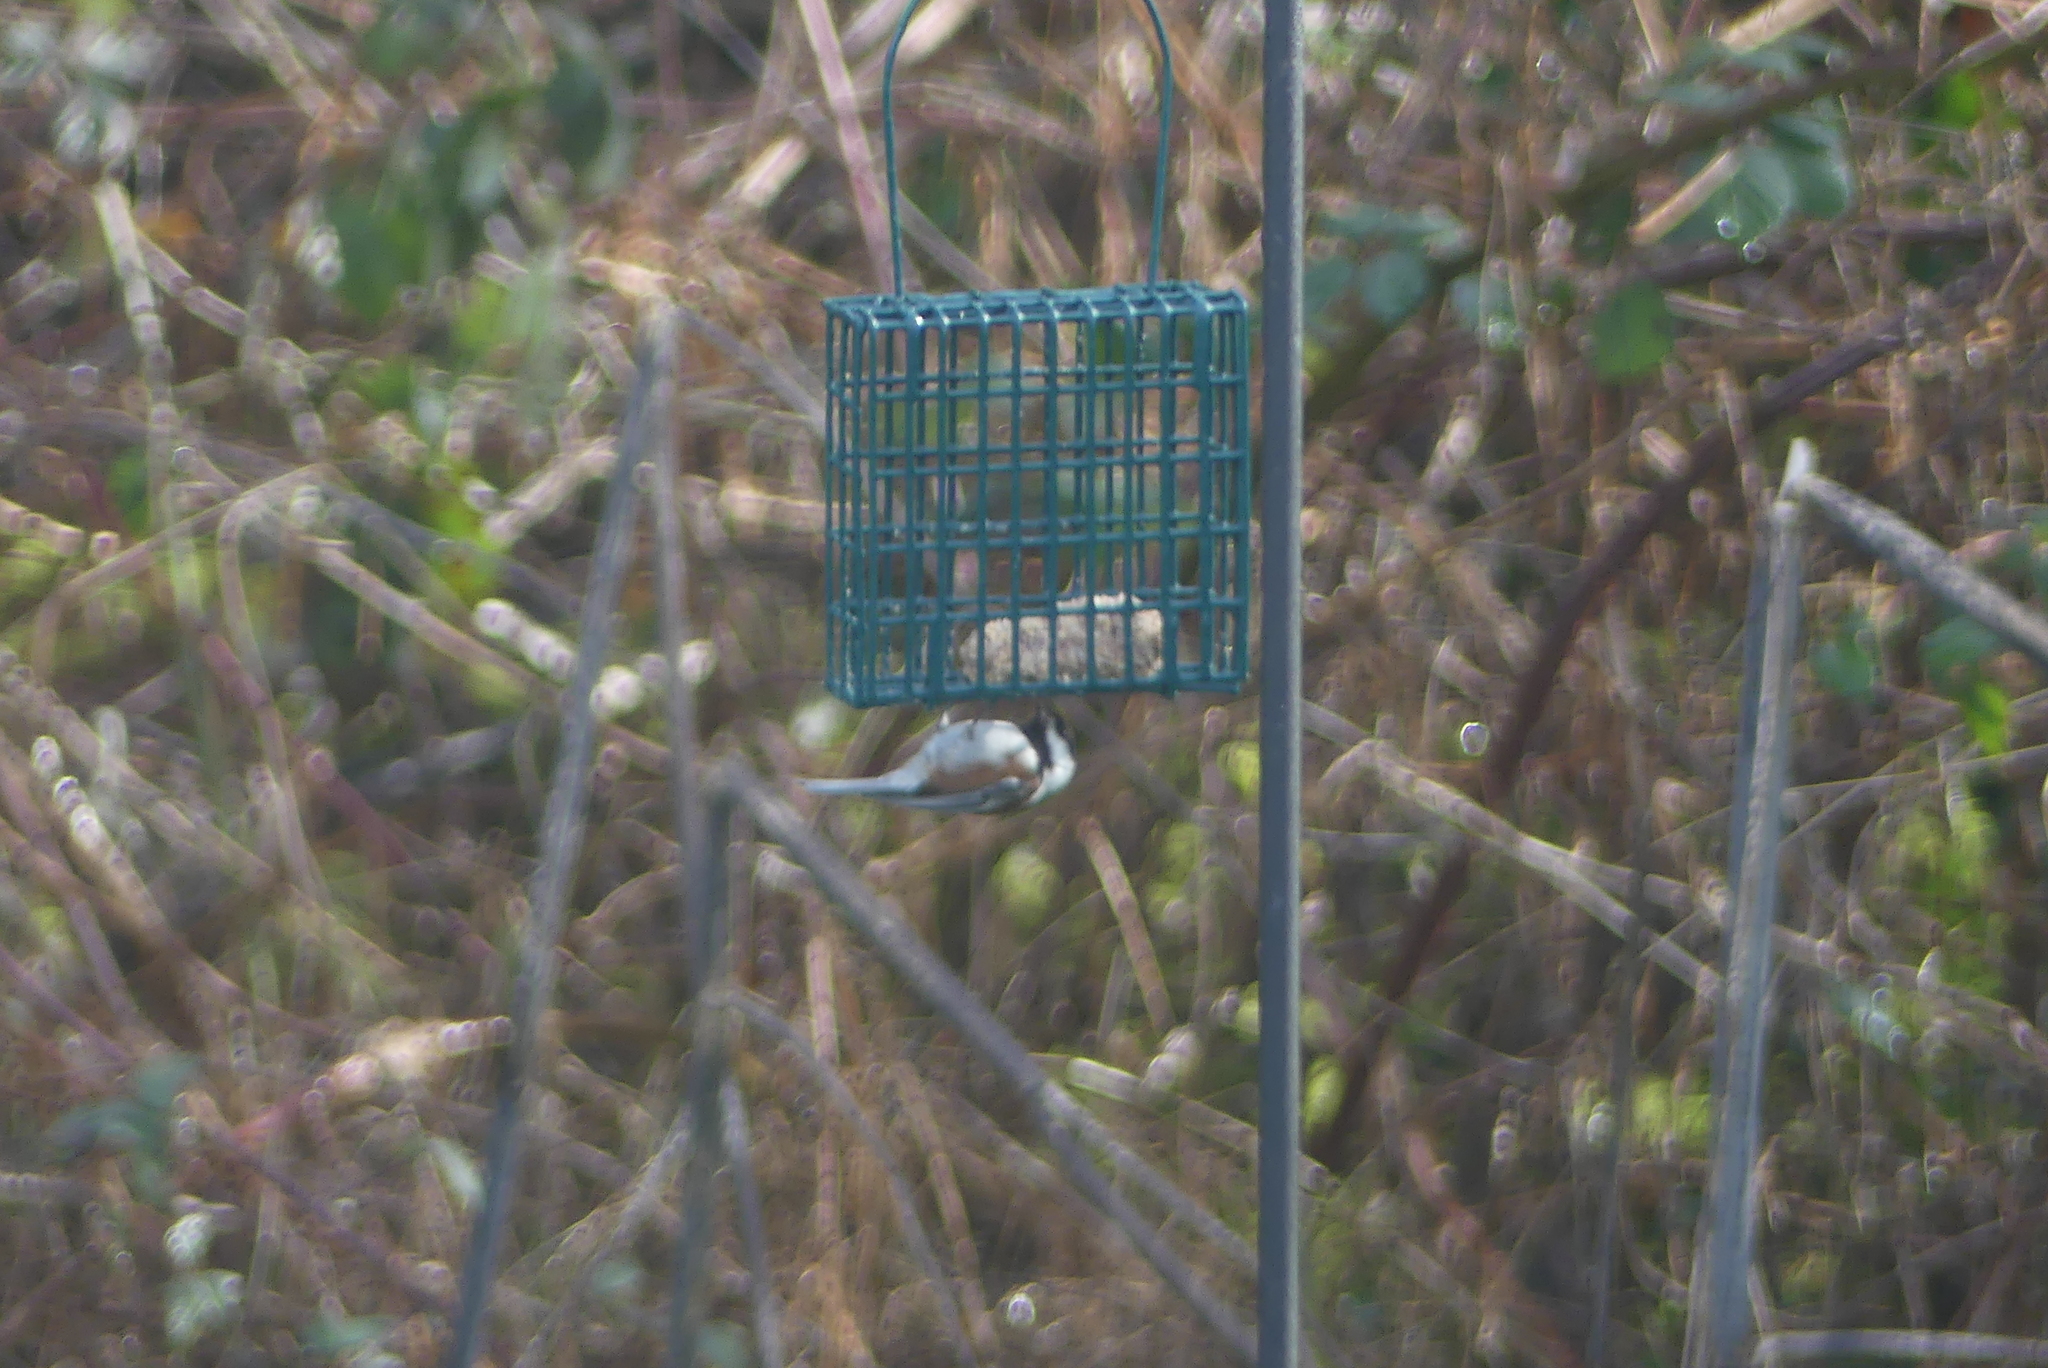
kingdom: Animalia
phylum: Chordata
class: Aves
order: Passeriformes
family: Paridae
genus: Poecile
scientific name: Poecile rufescens
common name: Chestnut-backed chickadee
